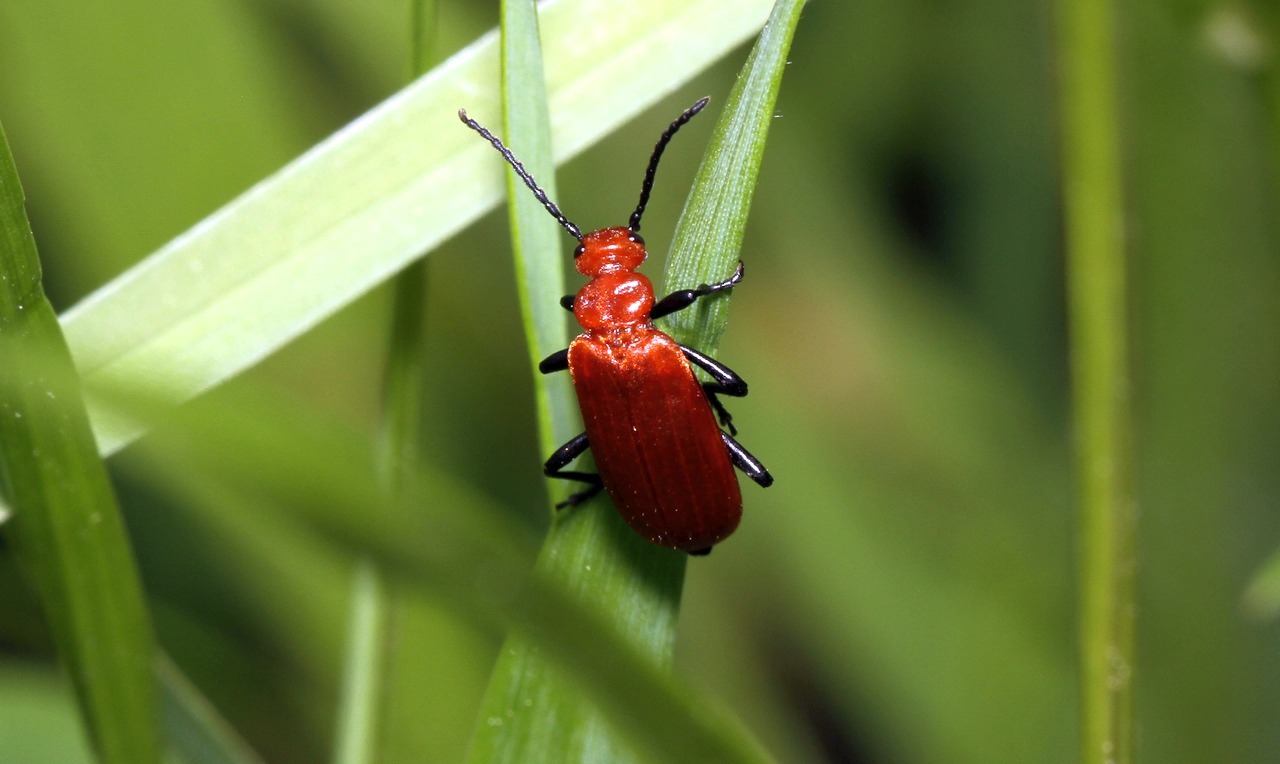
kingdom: Animalia
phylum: Arthropoda
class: Insecta
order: Coleoptera
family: Pyrochroidae
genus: Pyrochroa
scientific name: Pyrochroa serraticornis
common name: Red-headed cardinal beetle
